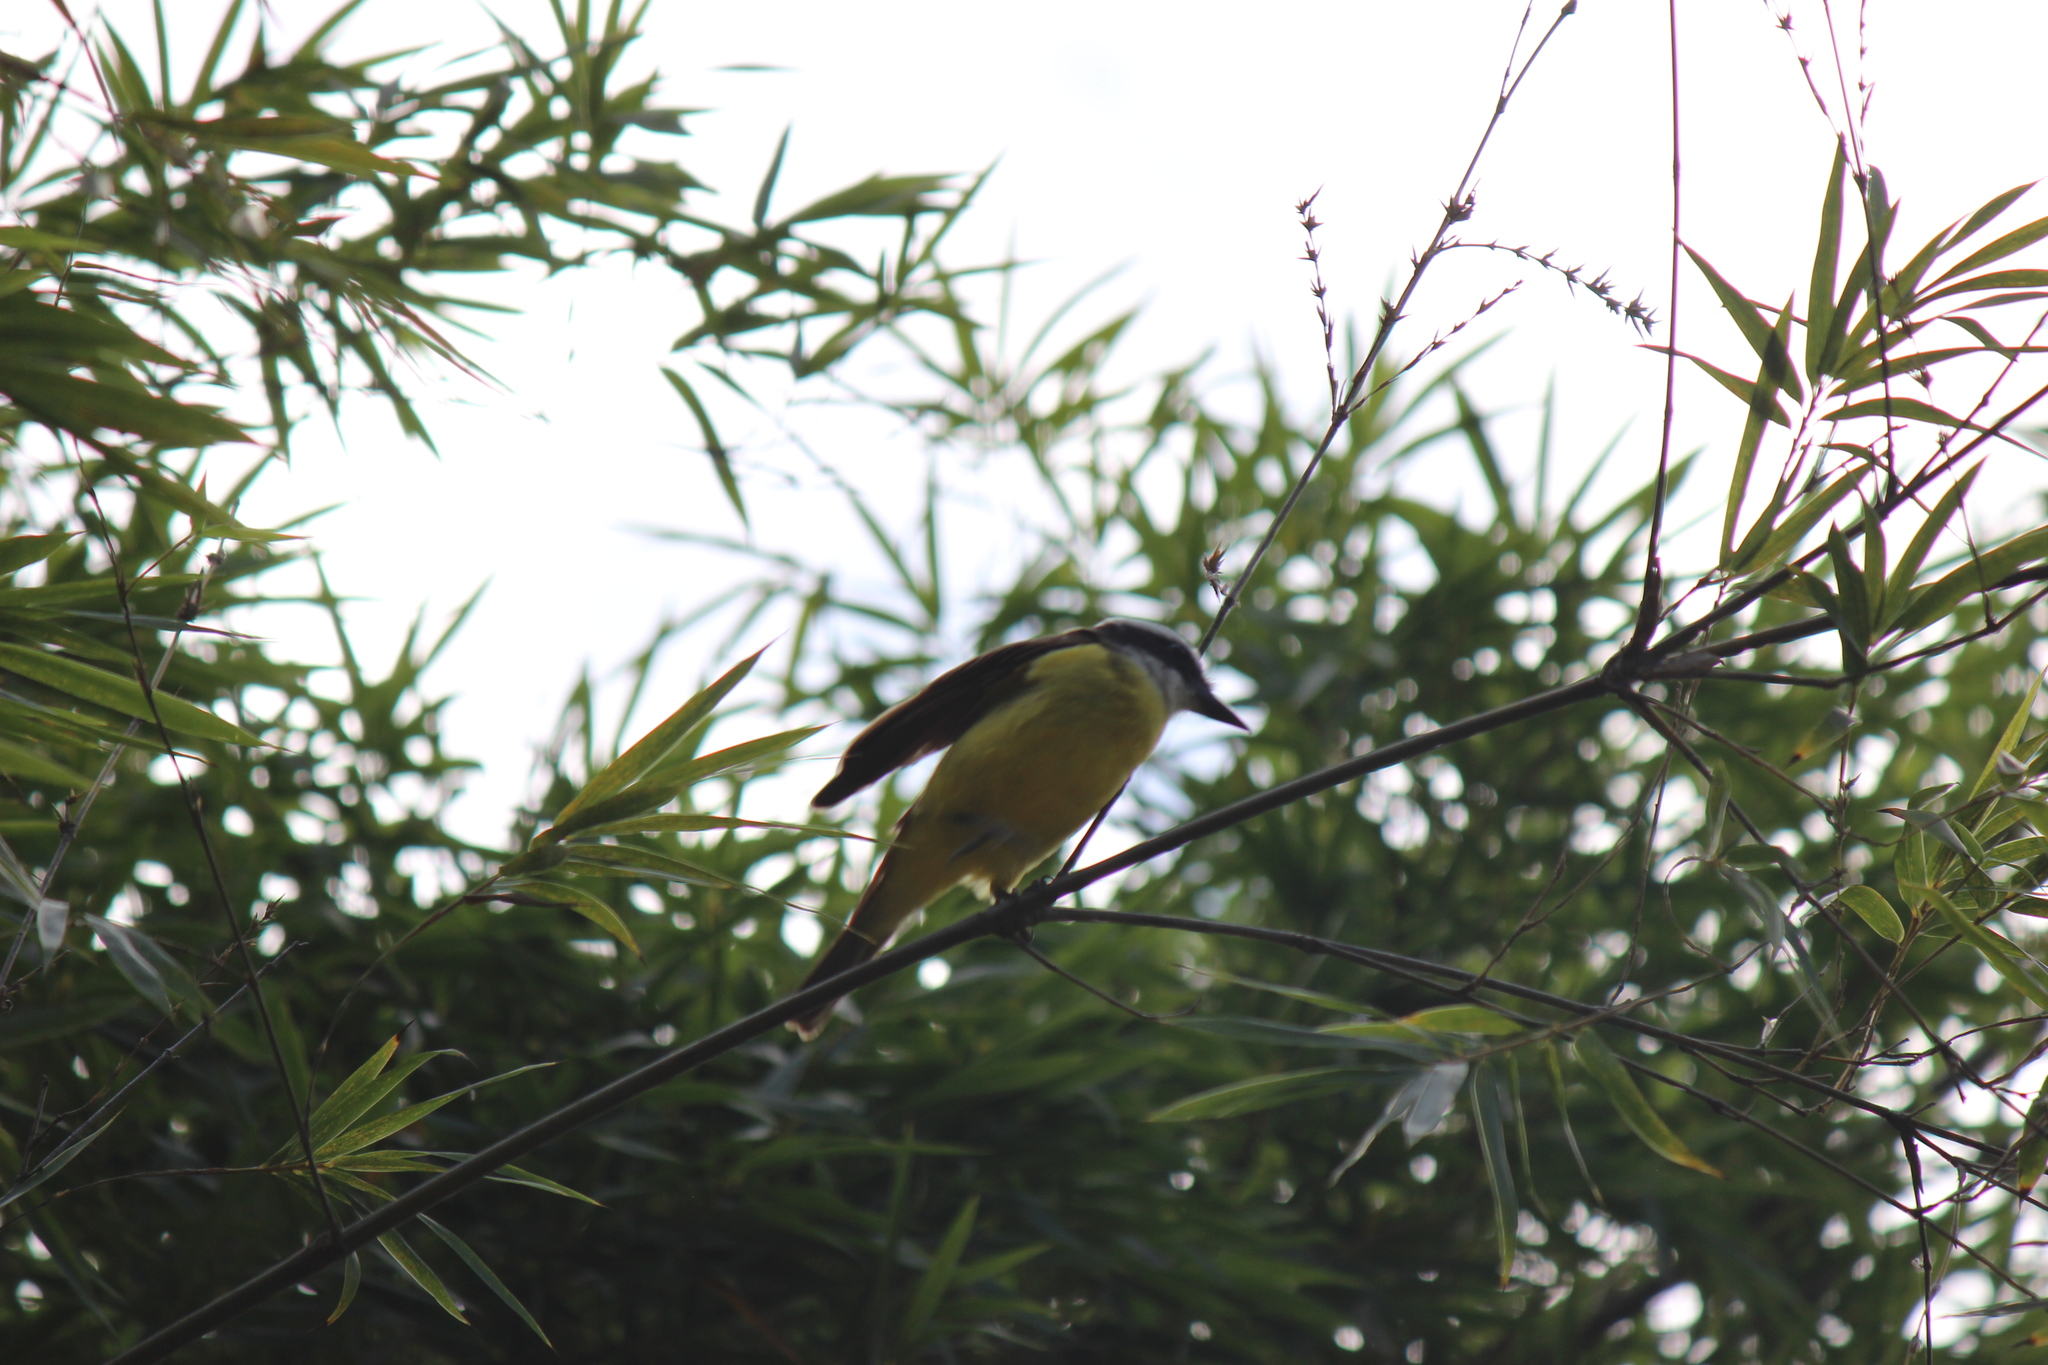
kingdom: Animalia
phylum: Chordata
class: Aves
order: Passeriformes
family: Tyrannidae
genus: Pitangus
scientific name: Pitangus sulphuratus
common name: Great kiskadee
